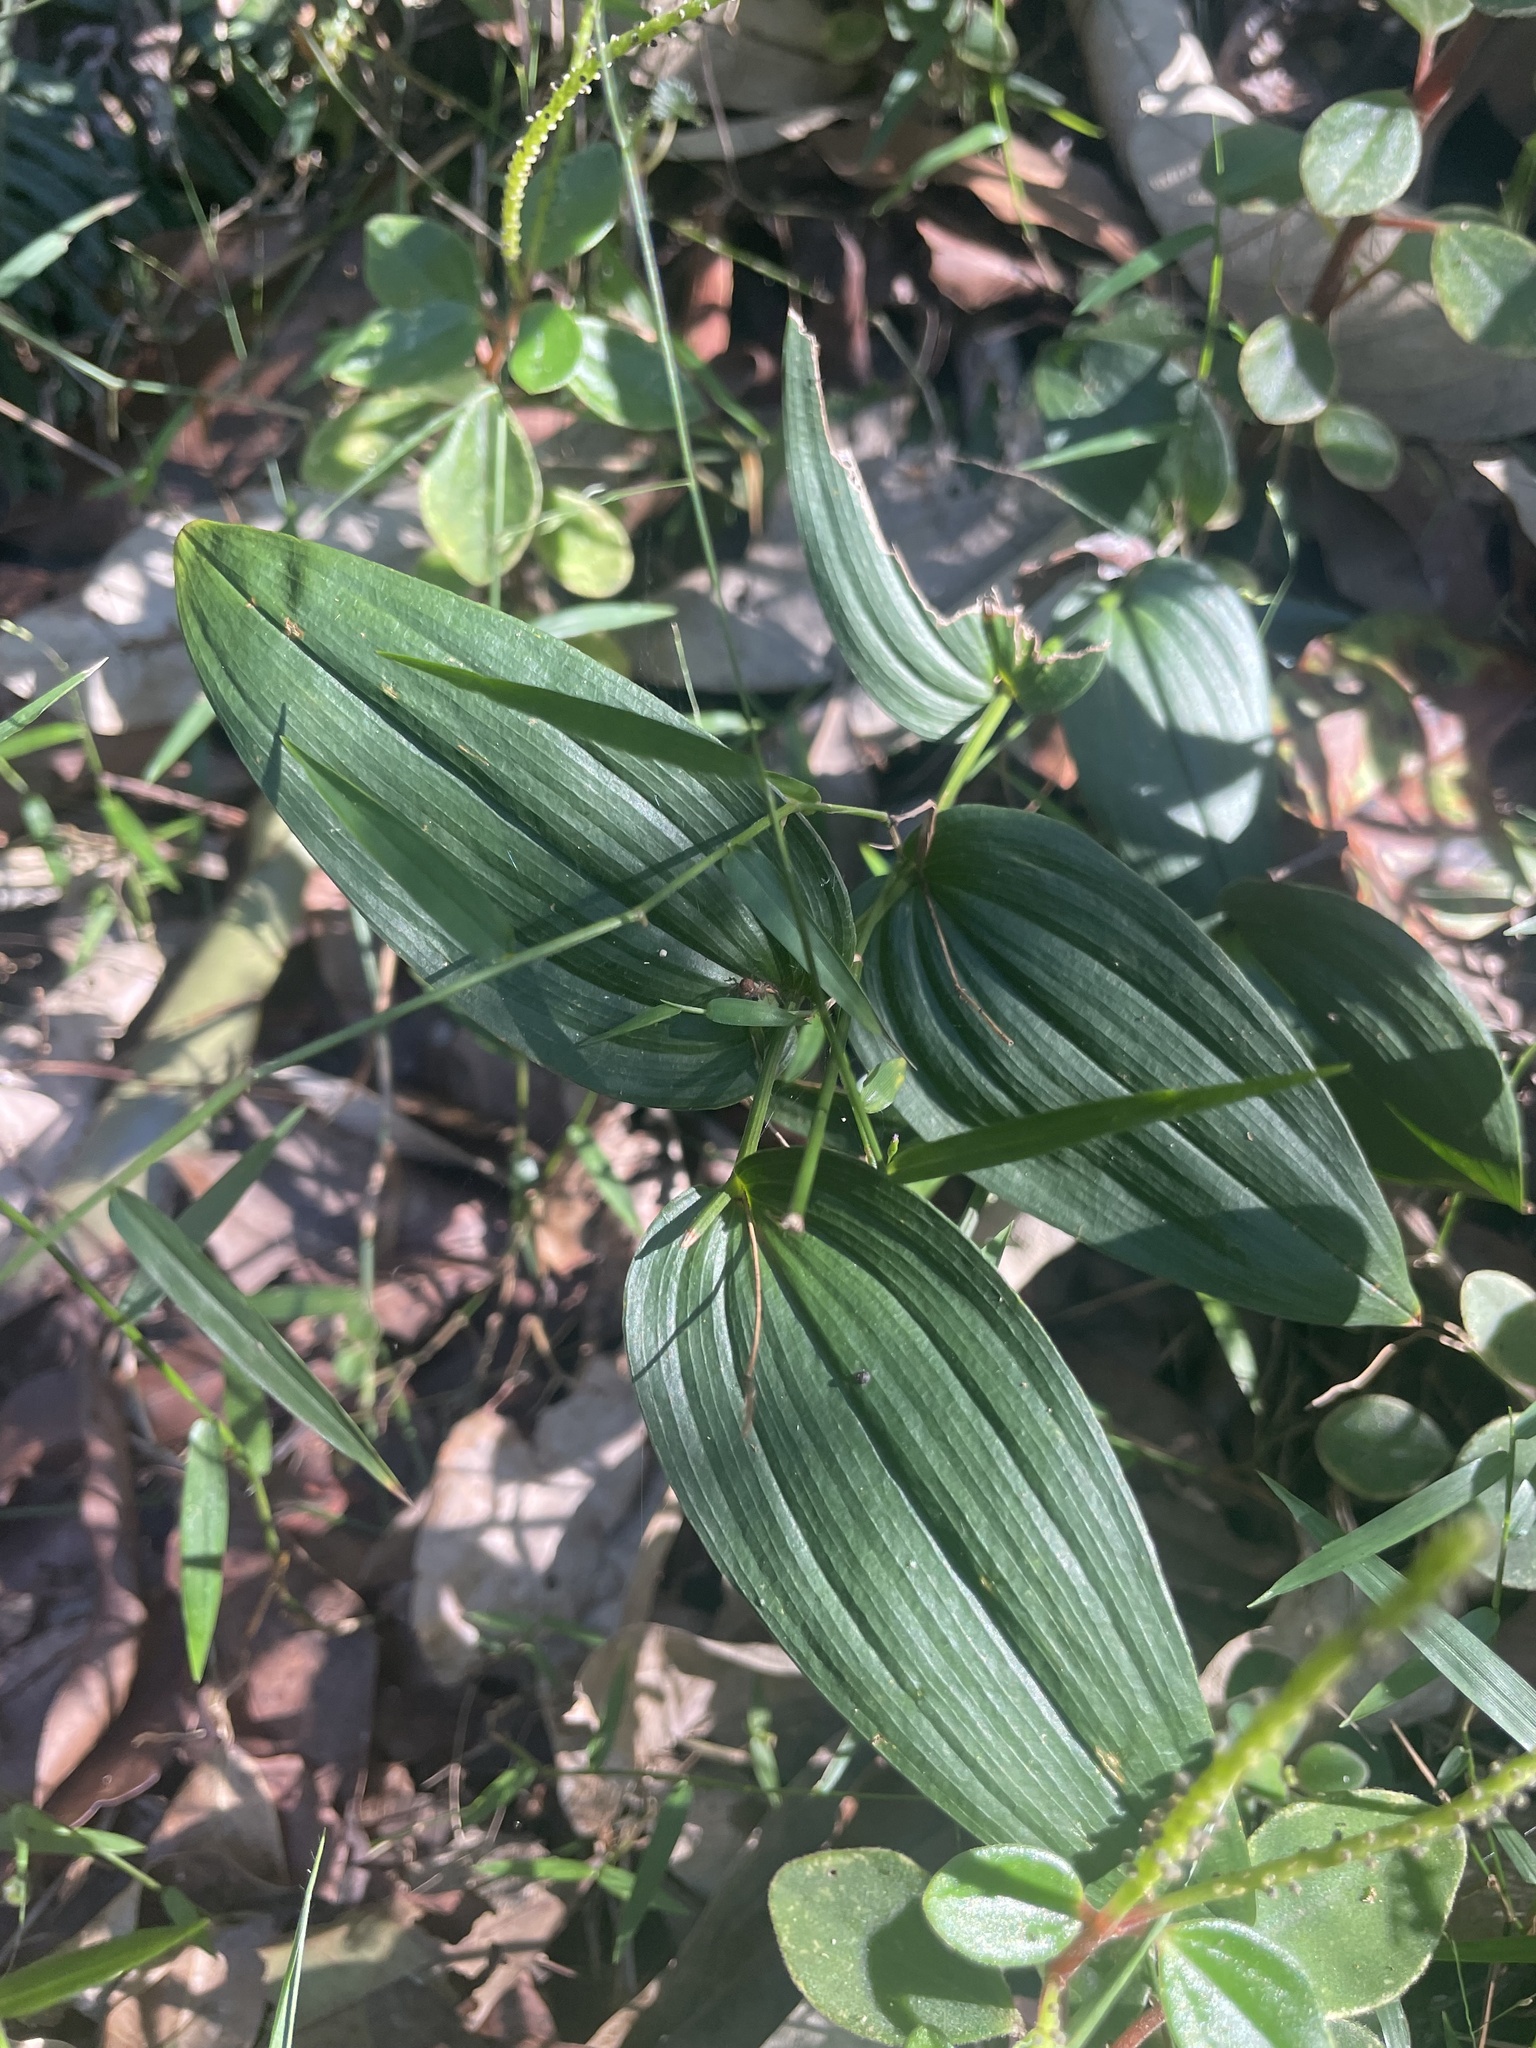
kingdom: Plantae
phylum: Tracheophyta
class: Liliopsida
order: Liliales
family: Colchicaceae
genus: Tripladenia
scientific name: Tripladenia cunninghamii
